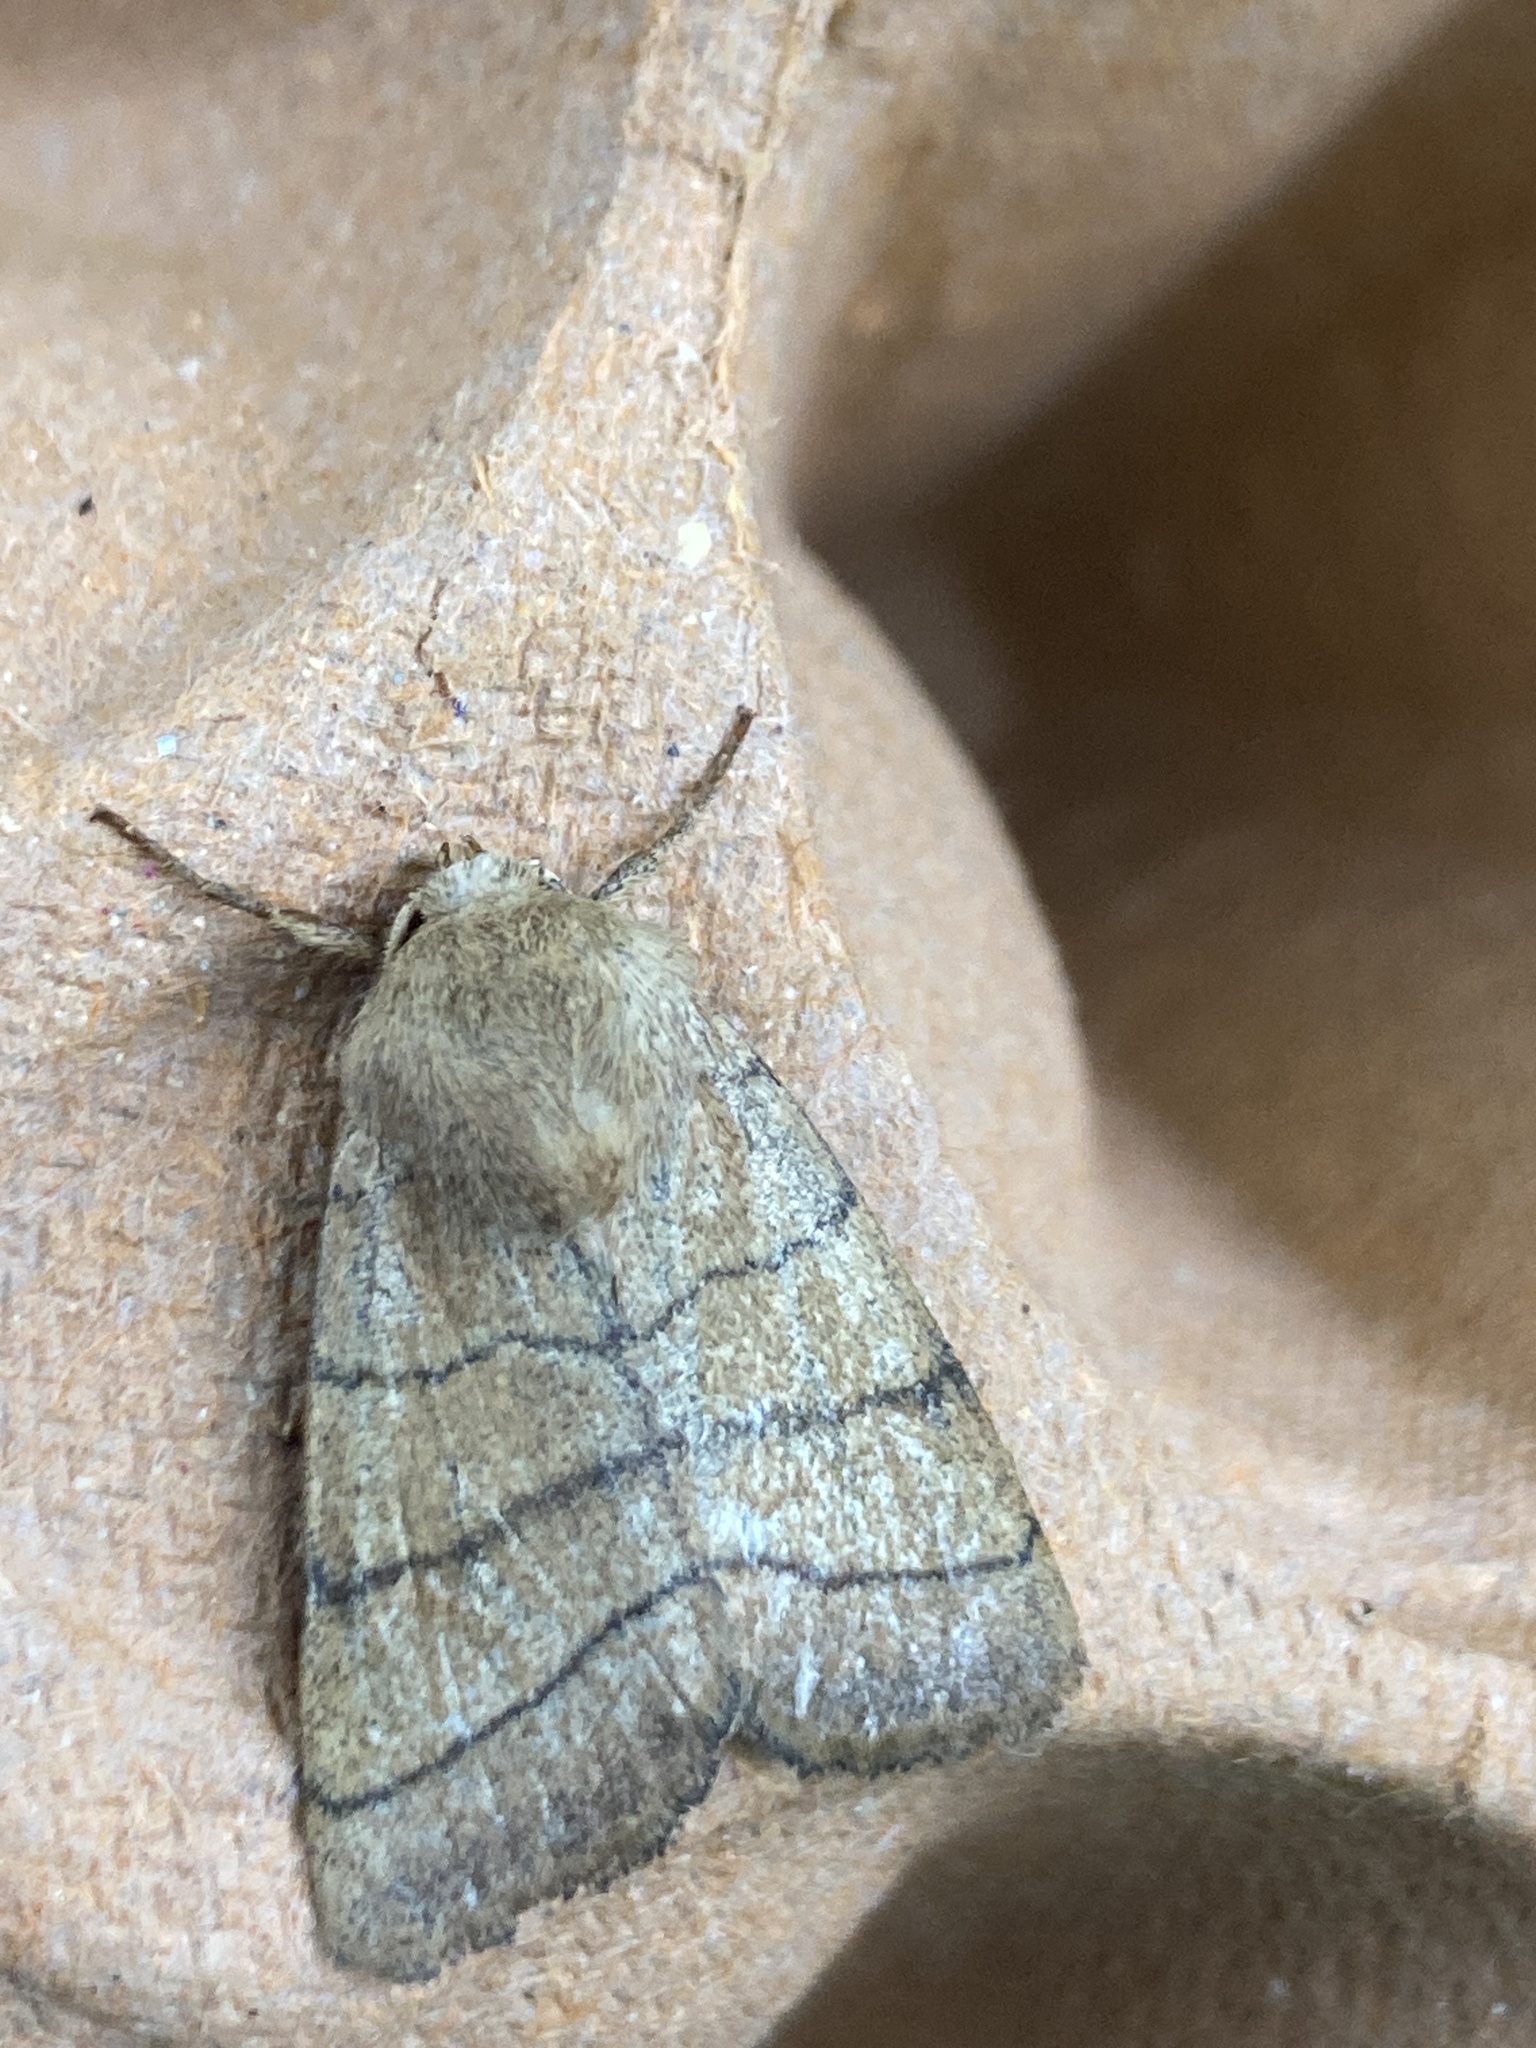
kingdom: Animalia
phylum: Arthropoda
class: Insecta
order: Lepidoptera
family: Noctuidae
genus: Charanyca
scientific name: Charanyca trigrammica
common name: Treble lines
